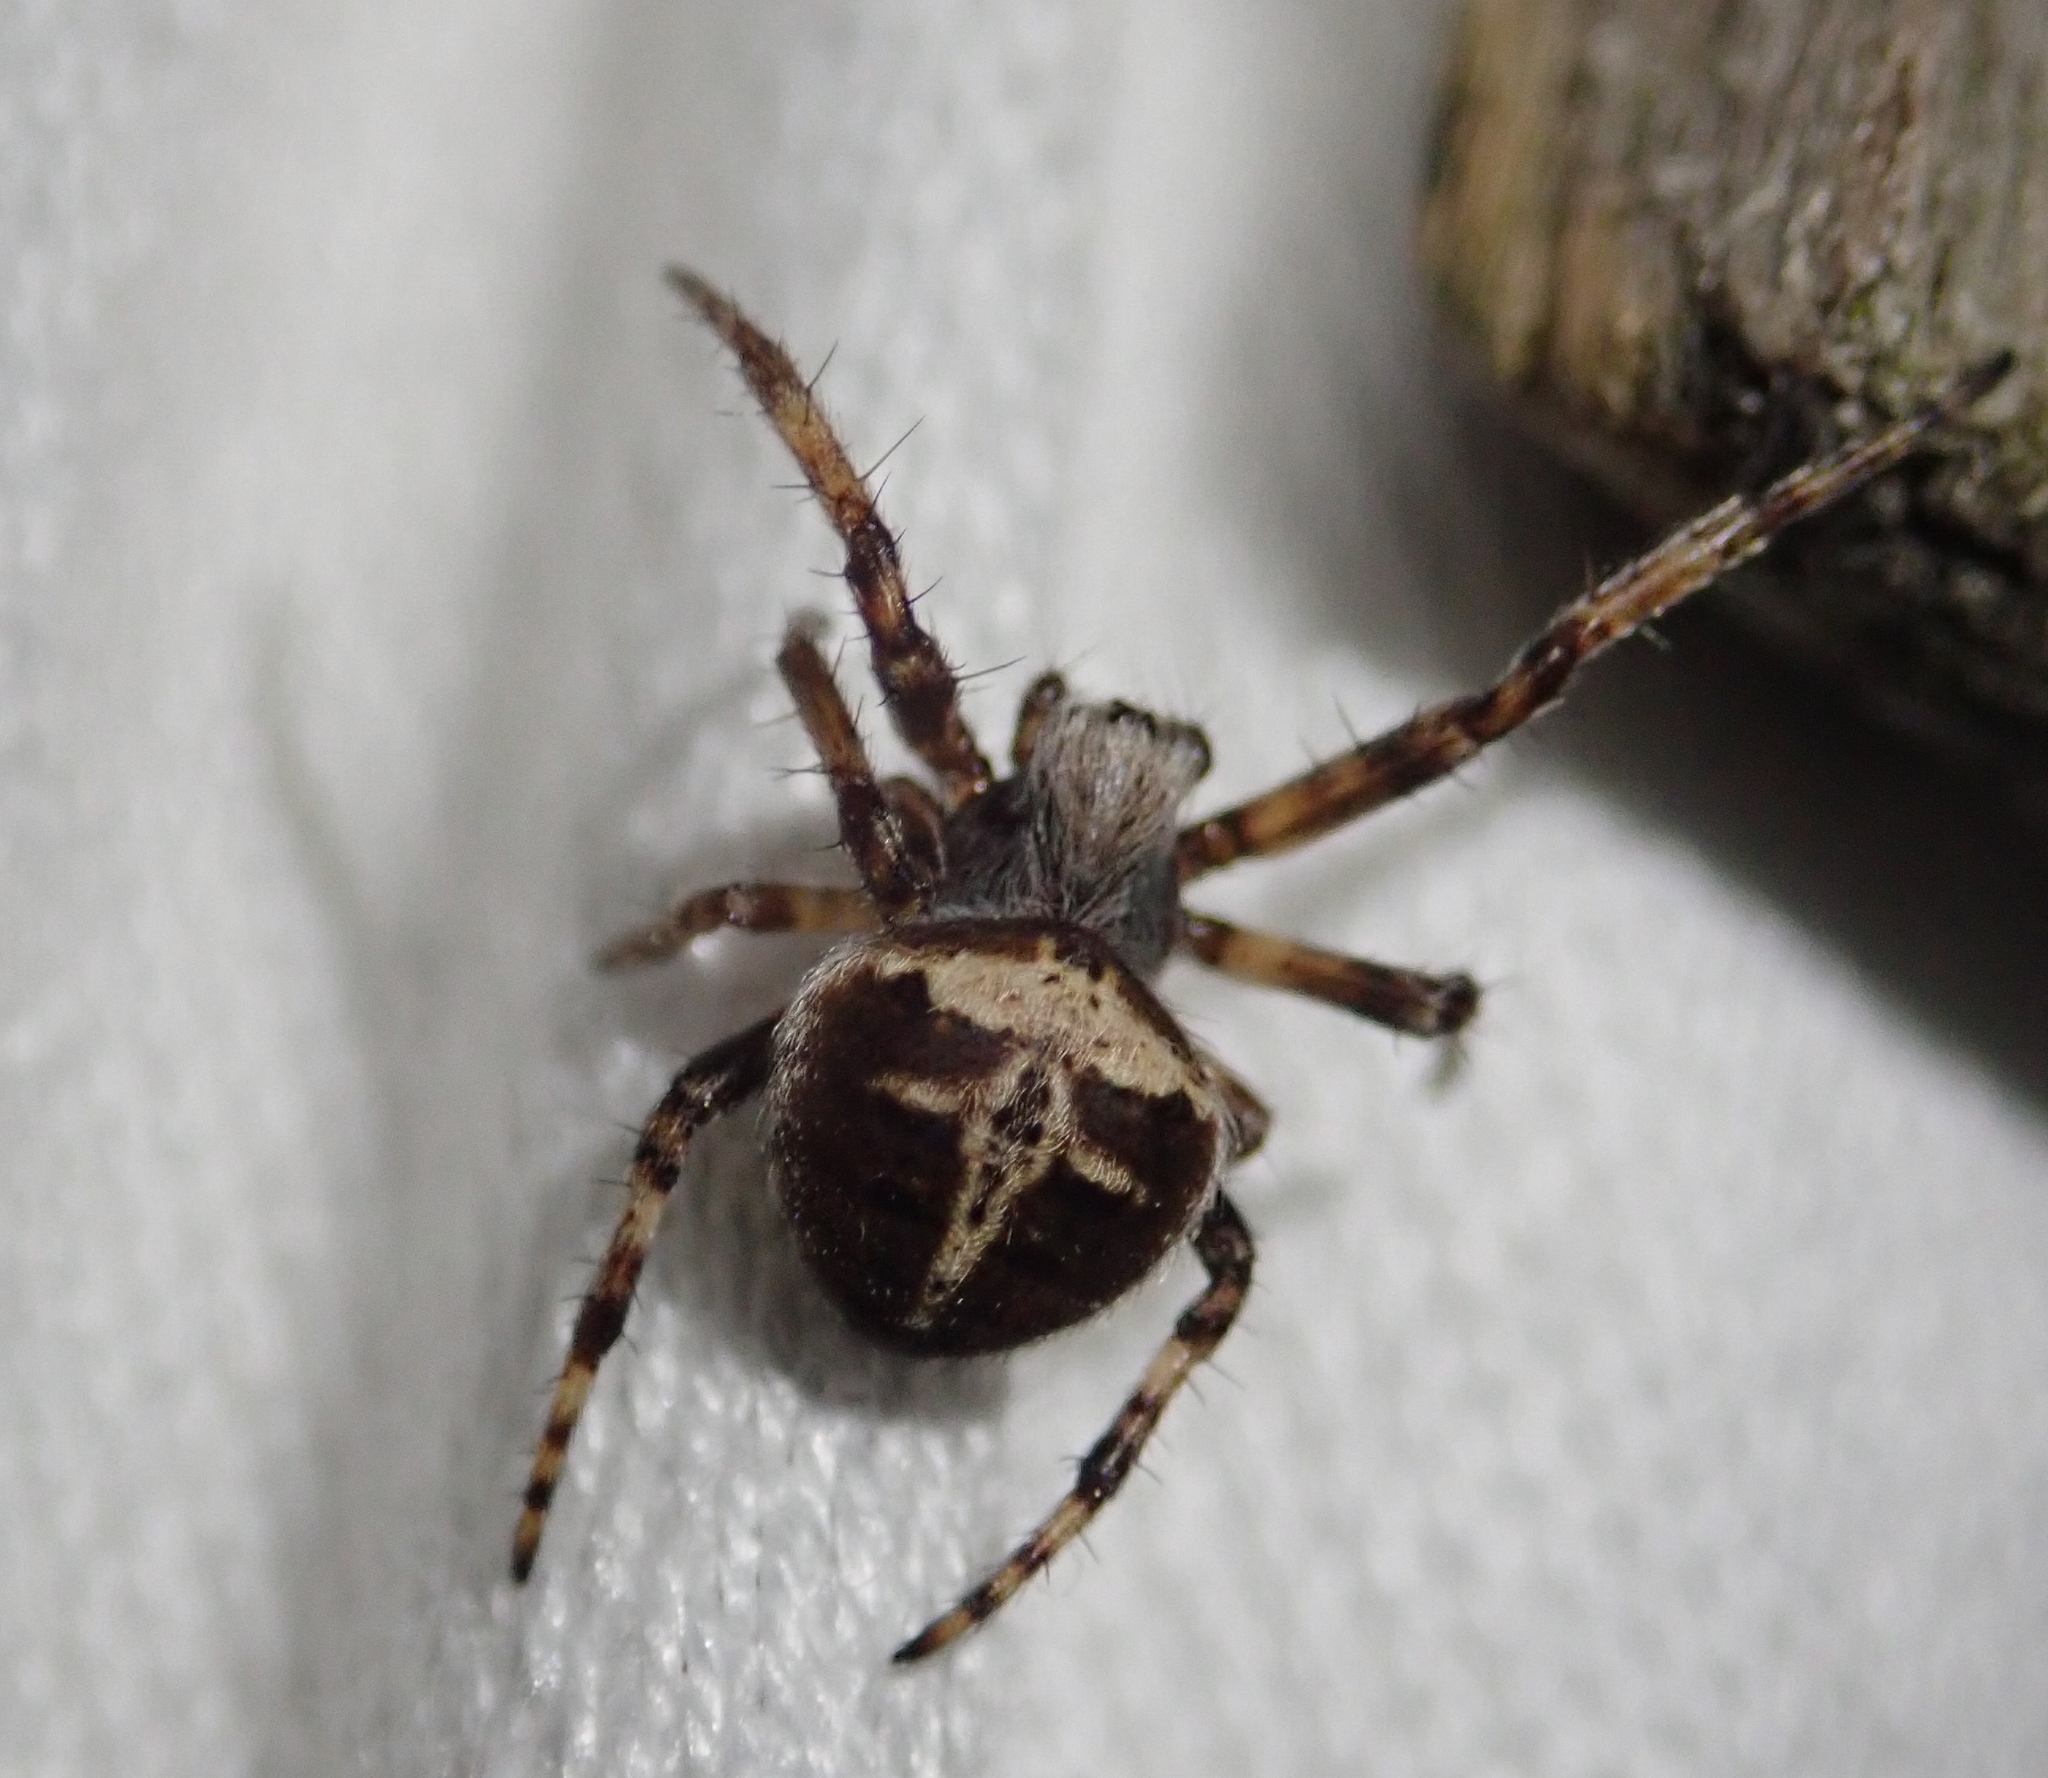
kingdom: Animalia
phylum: Arthropoda
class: Arachnida
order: Araneae
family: Araneidae
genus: Agalenatea
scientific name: Agalenatea redii
